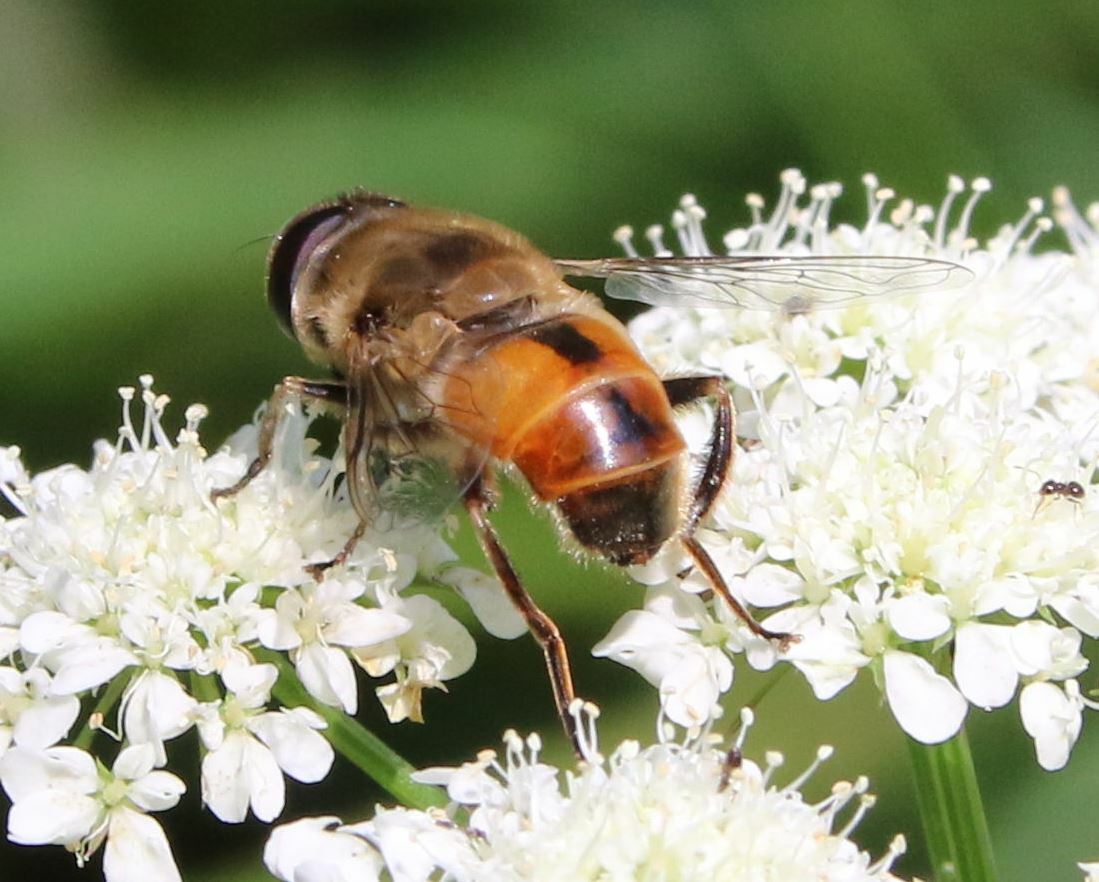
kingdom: Animalia
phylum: Arthropoda
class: Insecta
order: Diptera
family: Syrphidae
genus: Eristalis
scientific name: Eristalis tenax
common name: Drone fly
